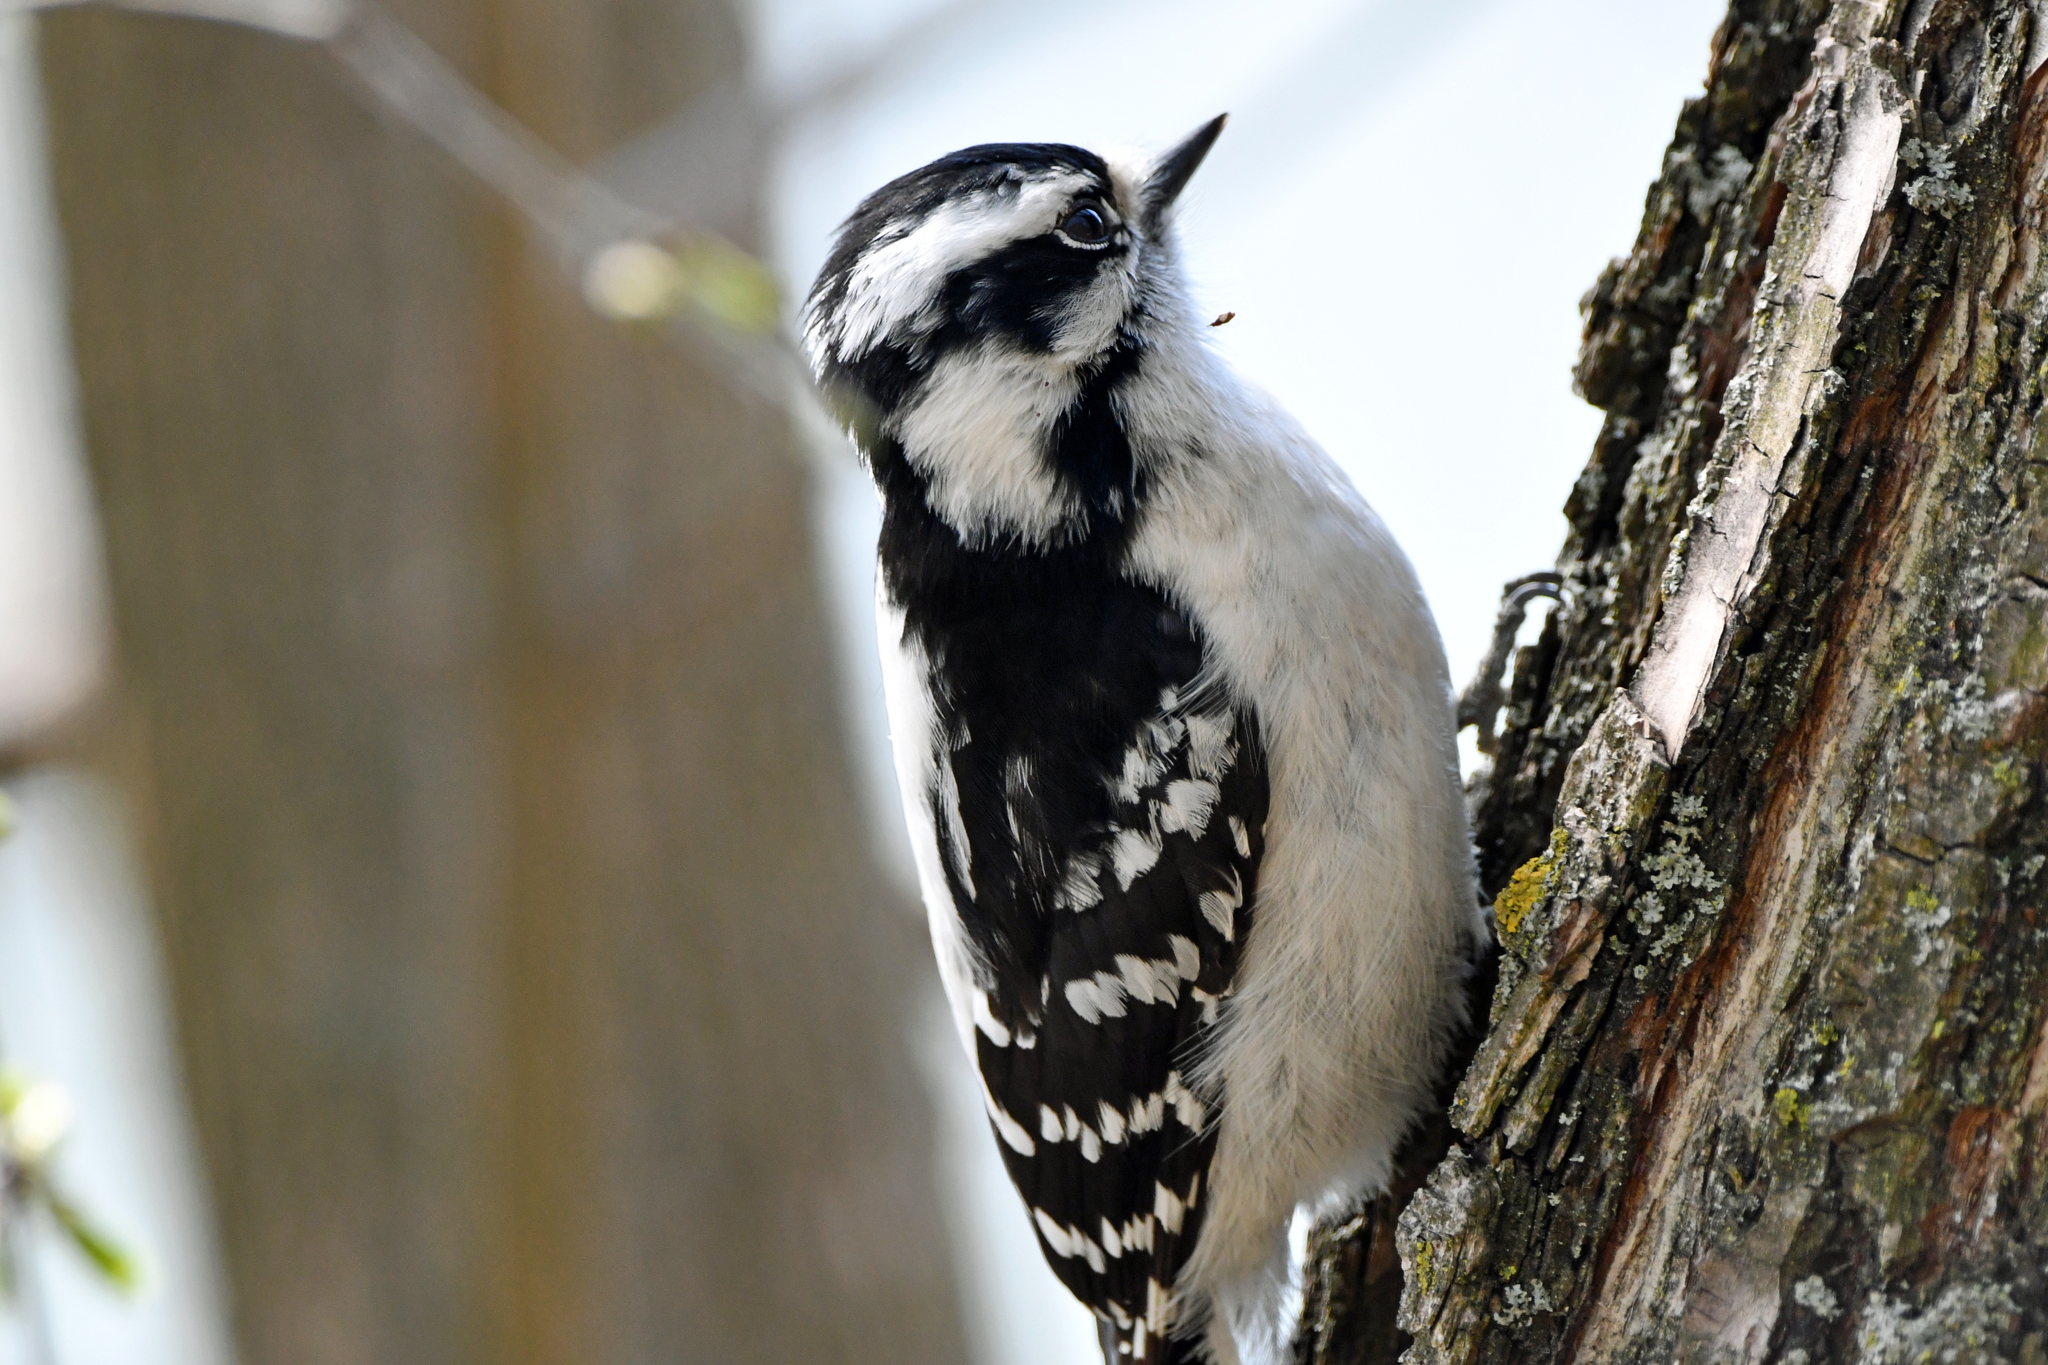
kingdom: Animalia
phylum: Chordata
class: Aves
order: Piciformes
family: Picidae
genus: Dryobates
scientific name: Dryobates pubescens
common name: Downy woodpecker
